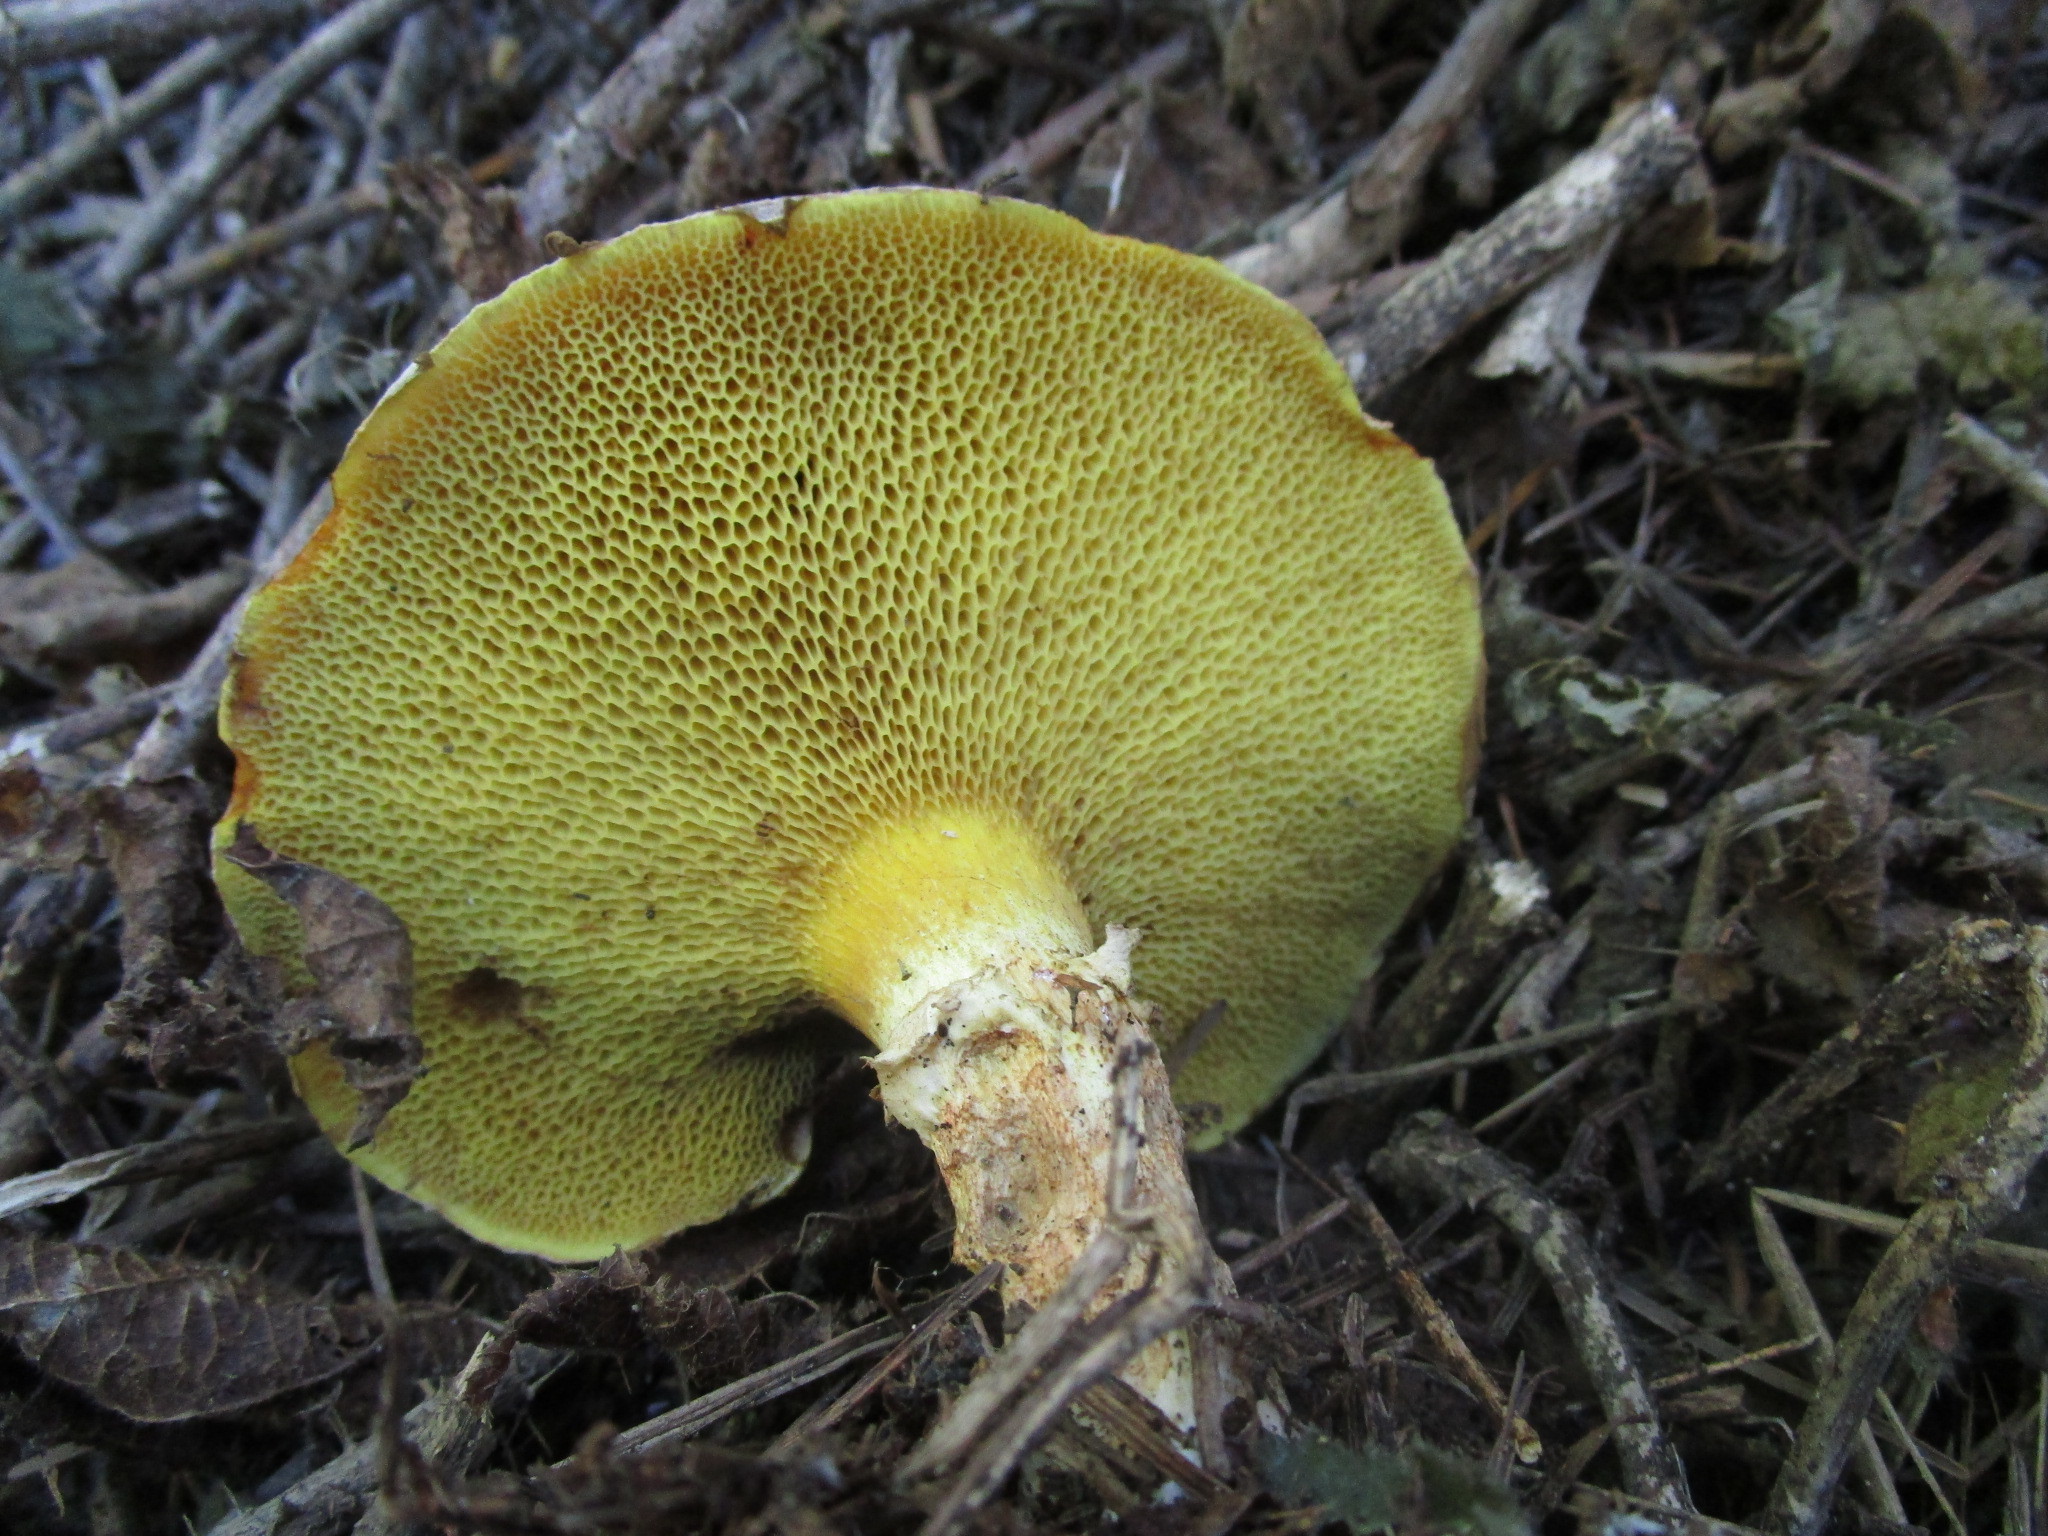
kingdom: Fungi
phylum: Basidiomycota
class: Agaricomycetes
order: Boletales
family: Suillaceae
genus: Suillus
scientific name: Suillus caerulescens
